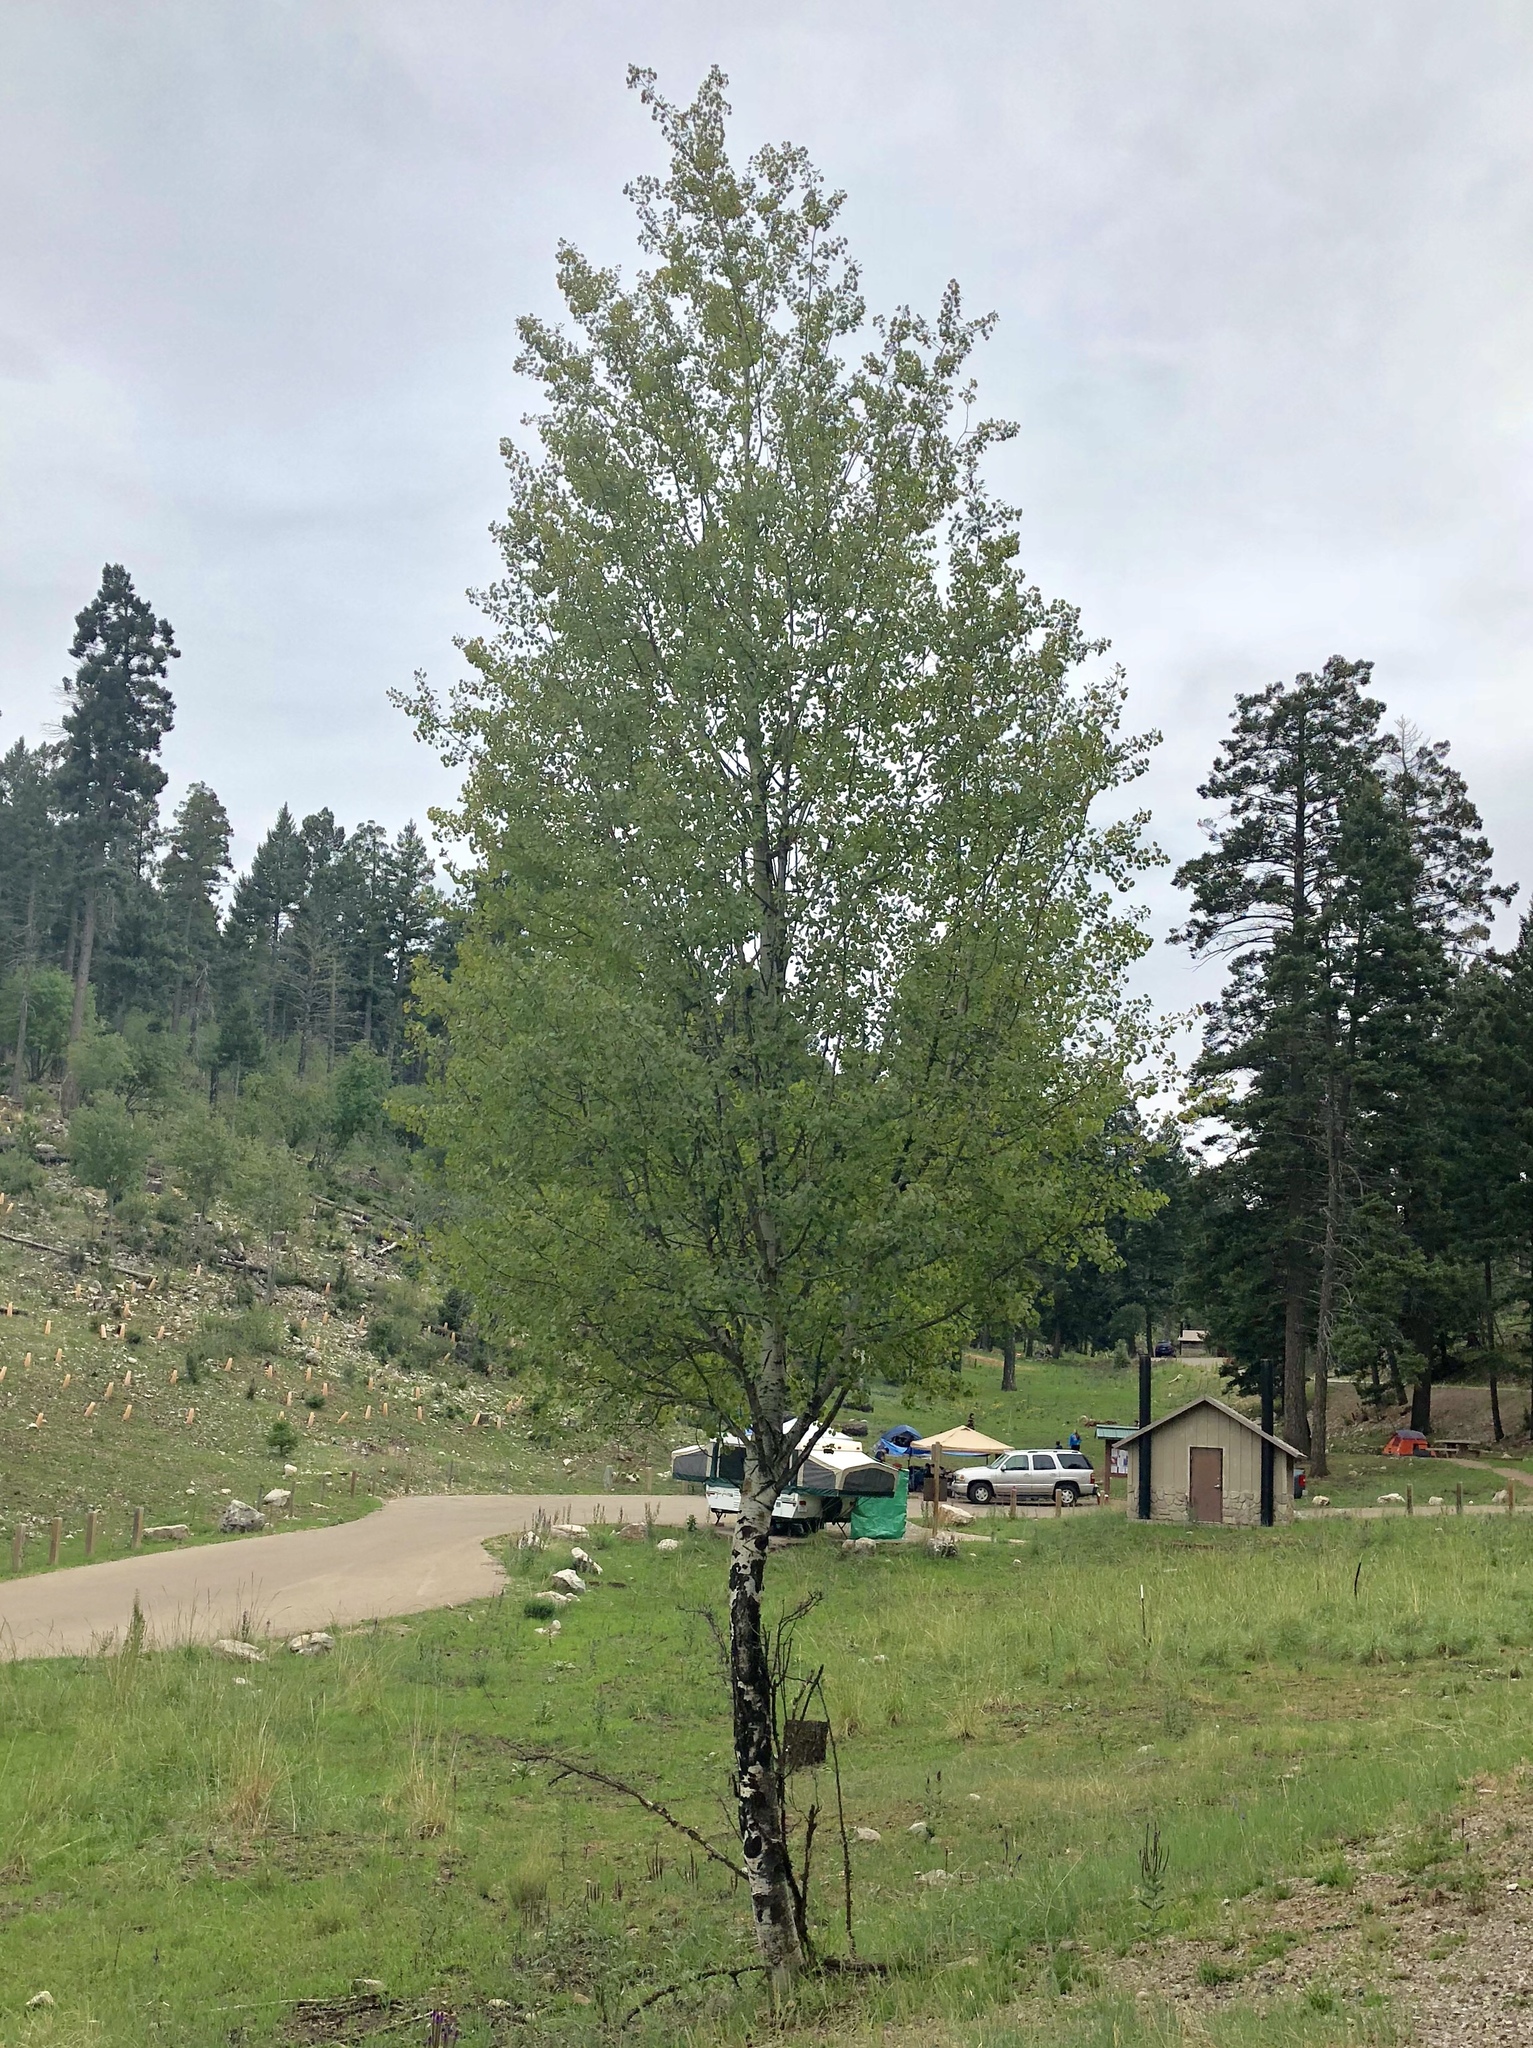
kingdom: Plantae
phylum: Tracheophyta
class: Magnoliopsida
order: Malpighiales
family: Salicaceae
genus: Populus
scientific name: Populus tremuloides
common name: Quaking aspen
